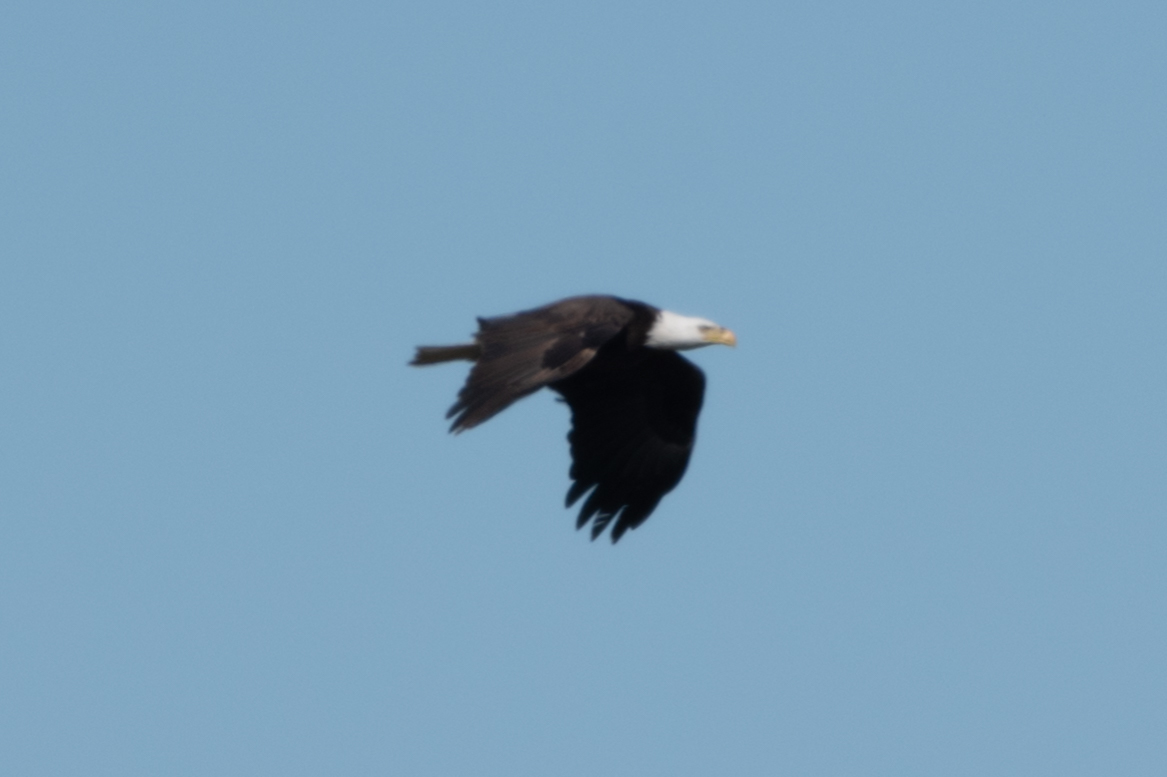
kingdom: Animalia
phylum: Chordata
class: Aves
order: Accipitriformes
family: Accipitridae
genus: Haliaeetus
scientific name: Haliaeetus leucocephalus
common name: Bald eagle
